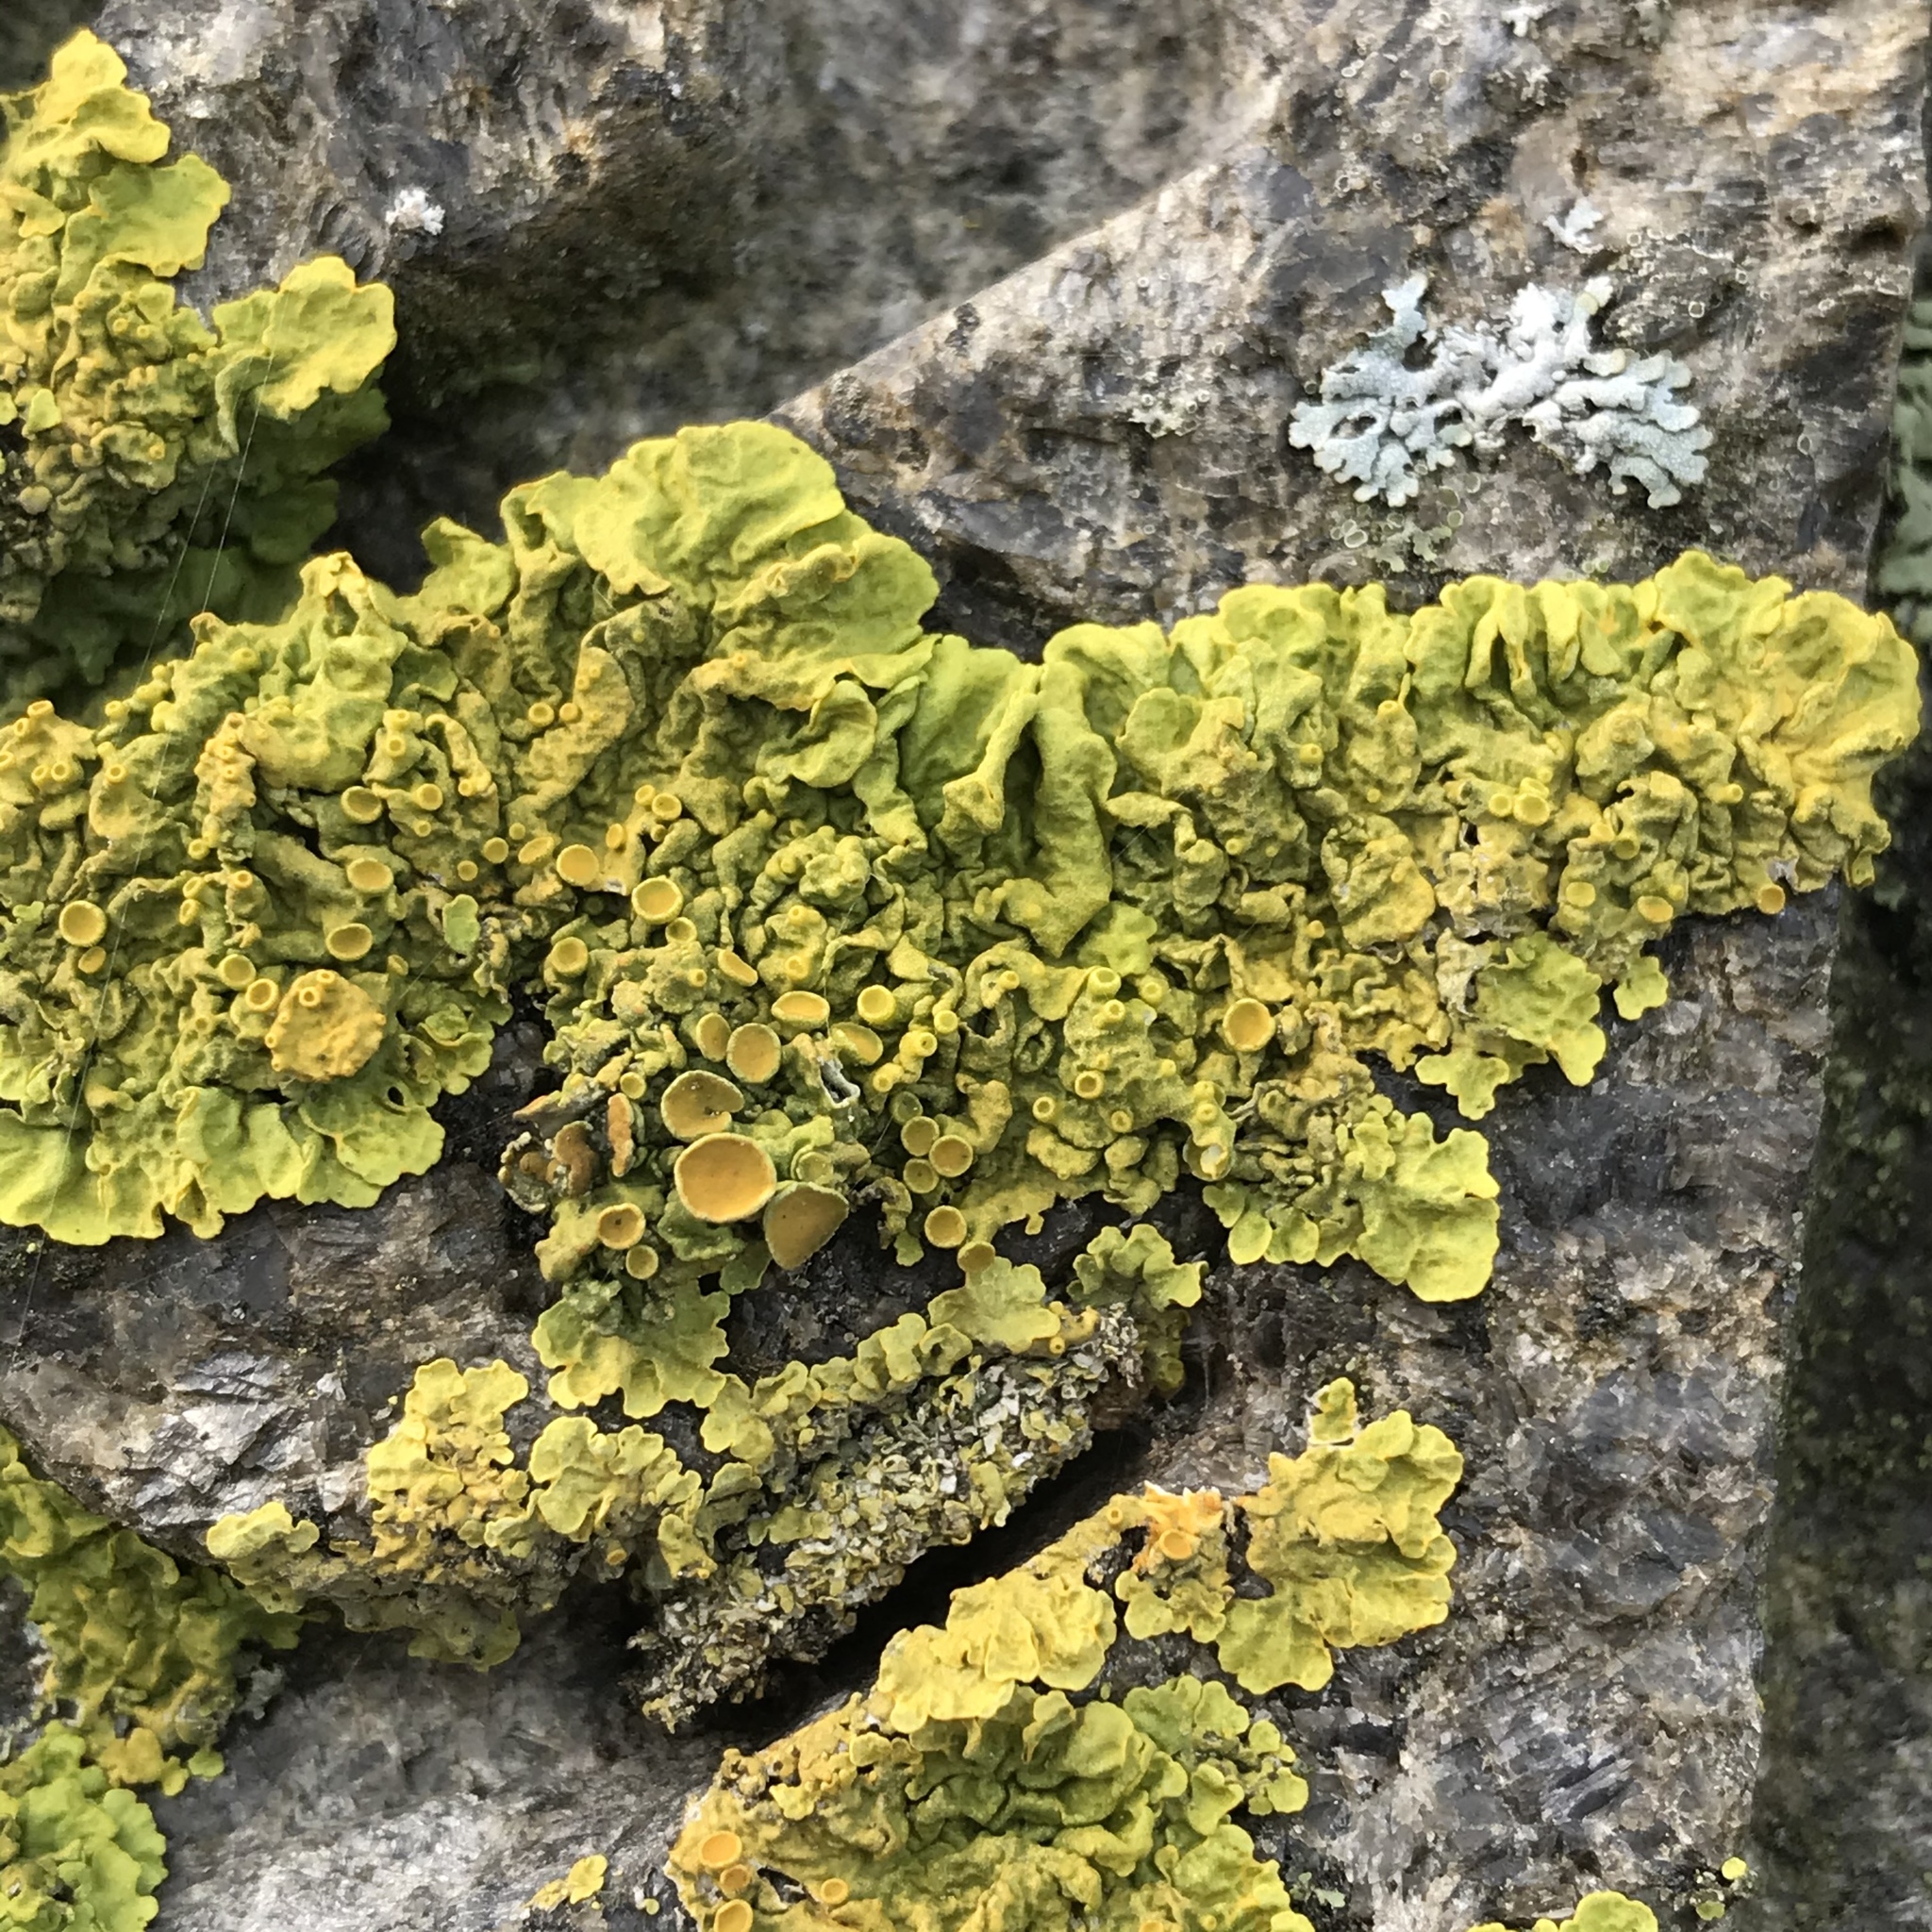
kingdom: Fungi
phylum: Ascomycota
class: Lecanoromycetes
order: Teloschistales
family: Teloschistaceae
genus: Xanthoria
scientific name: Xanthoria parietina
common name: Common orange lichen
